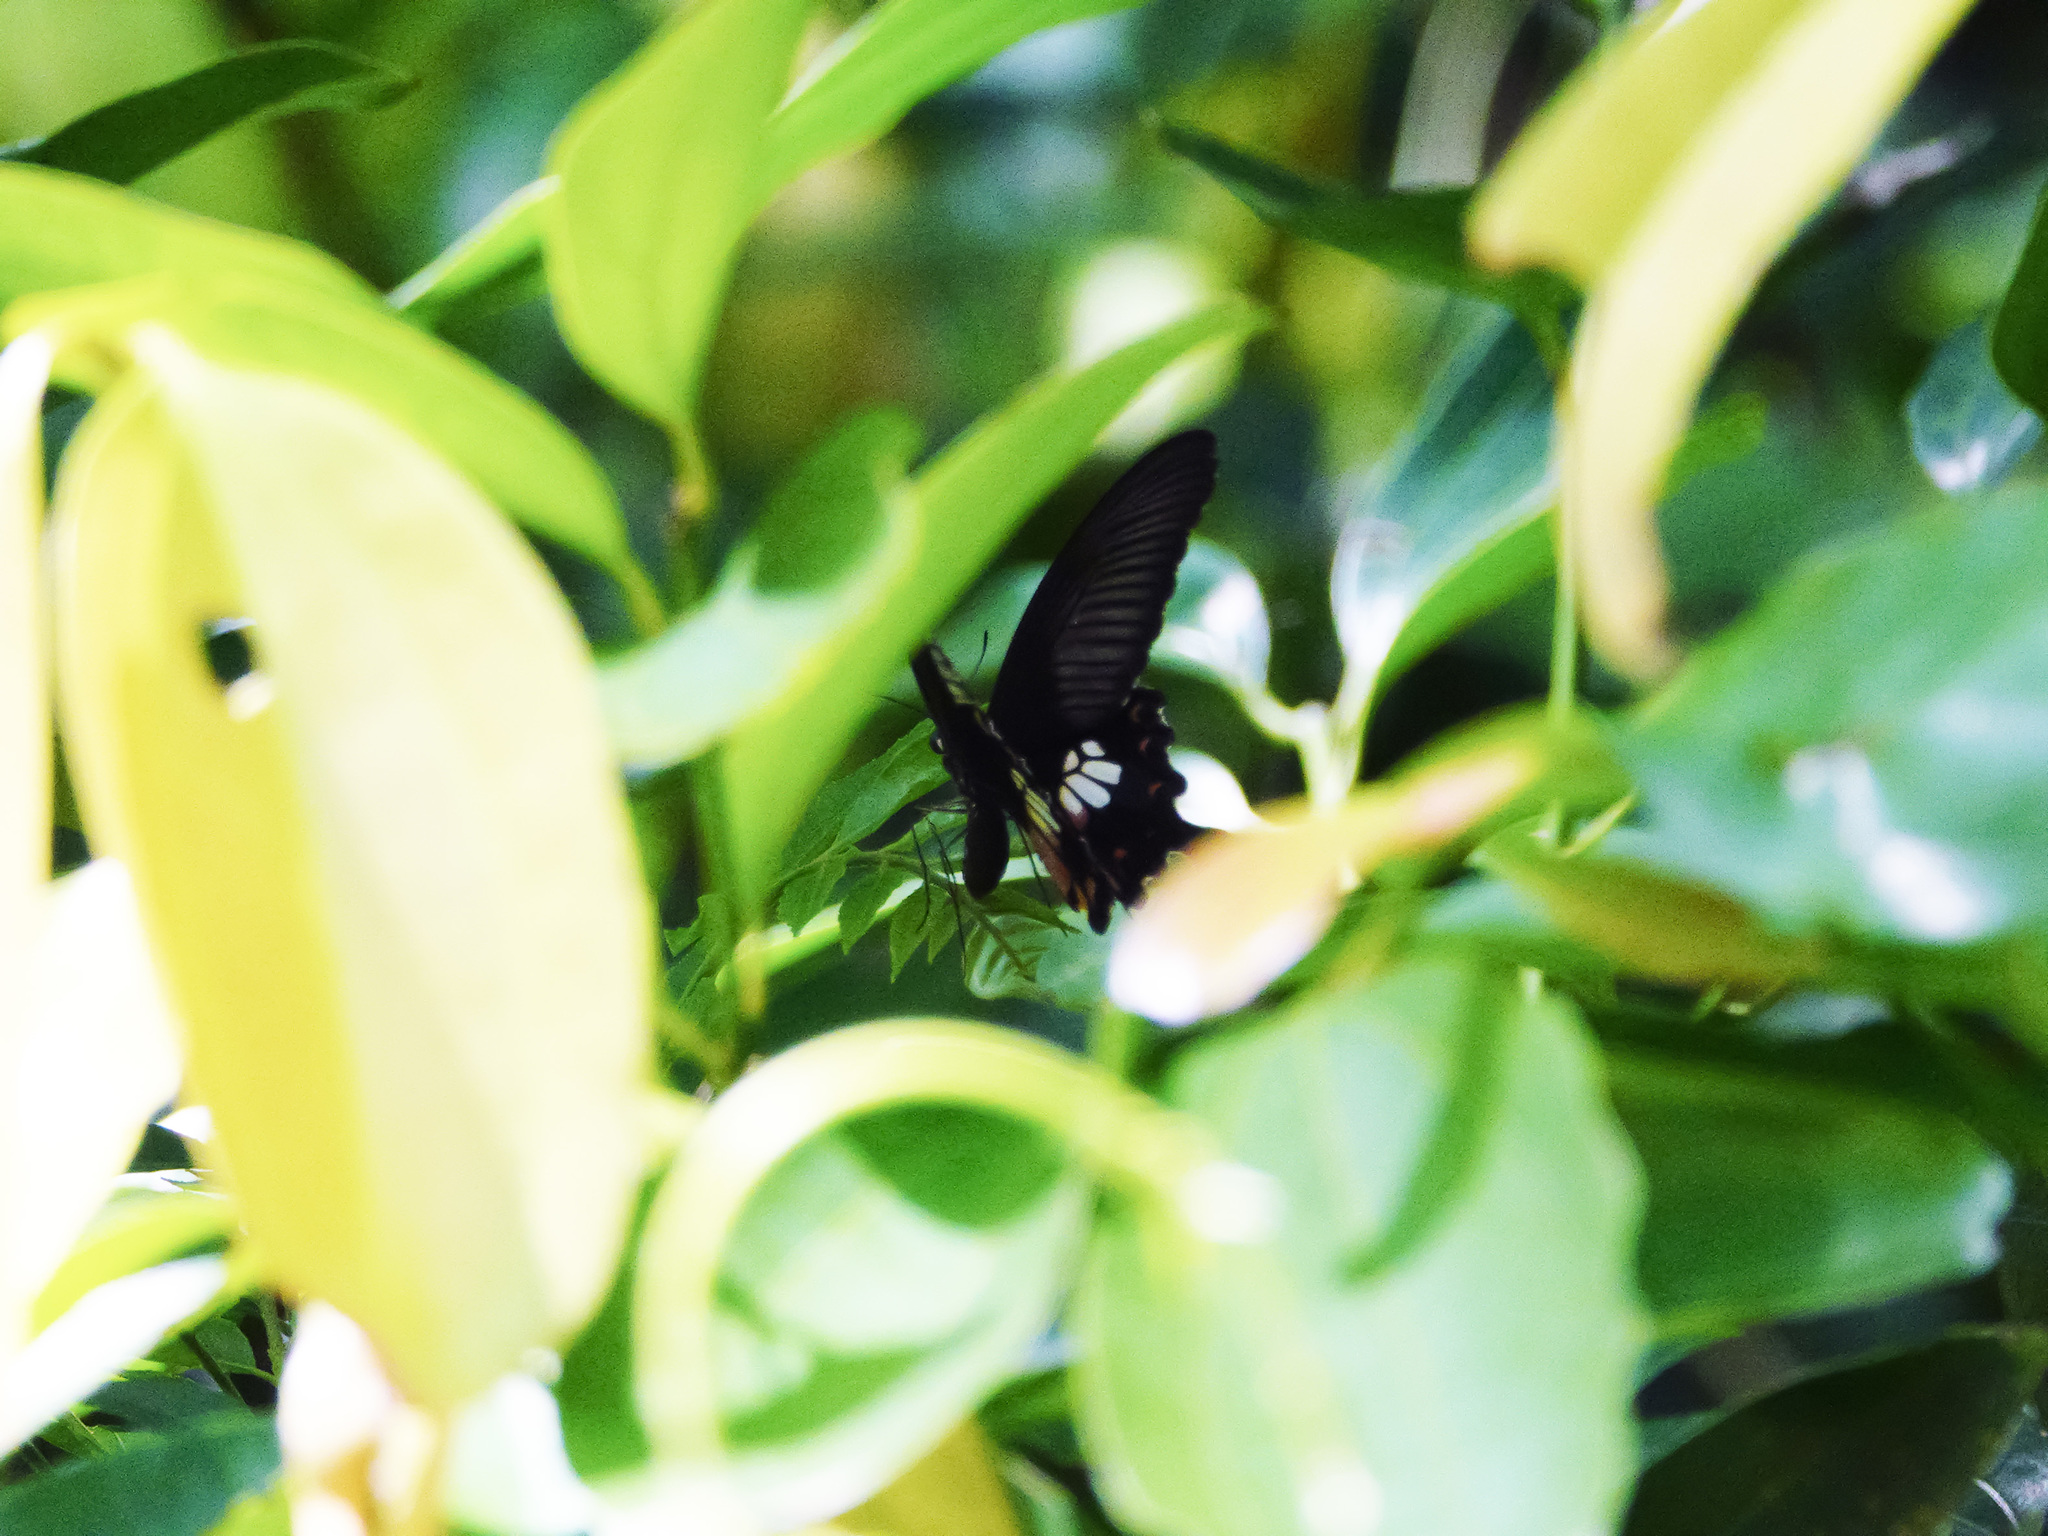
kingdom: Animalia
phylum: Arthropoda
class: Insecta
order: Lepidoptera
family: Papilionidae
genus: Papilio
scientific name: Papilio polytes
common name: Common mormon
